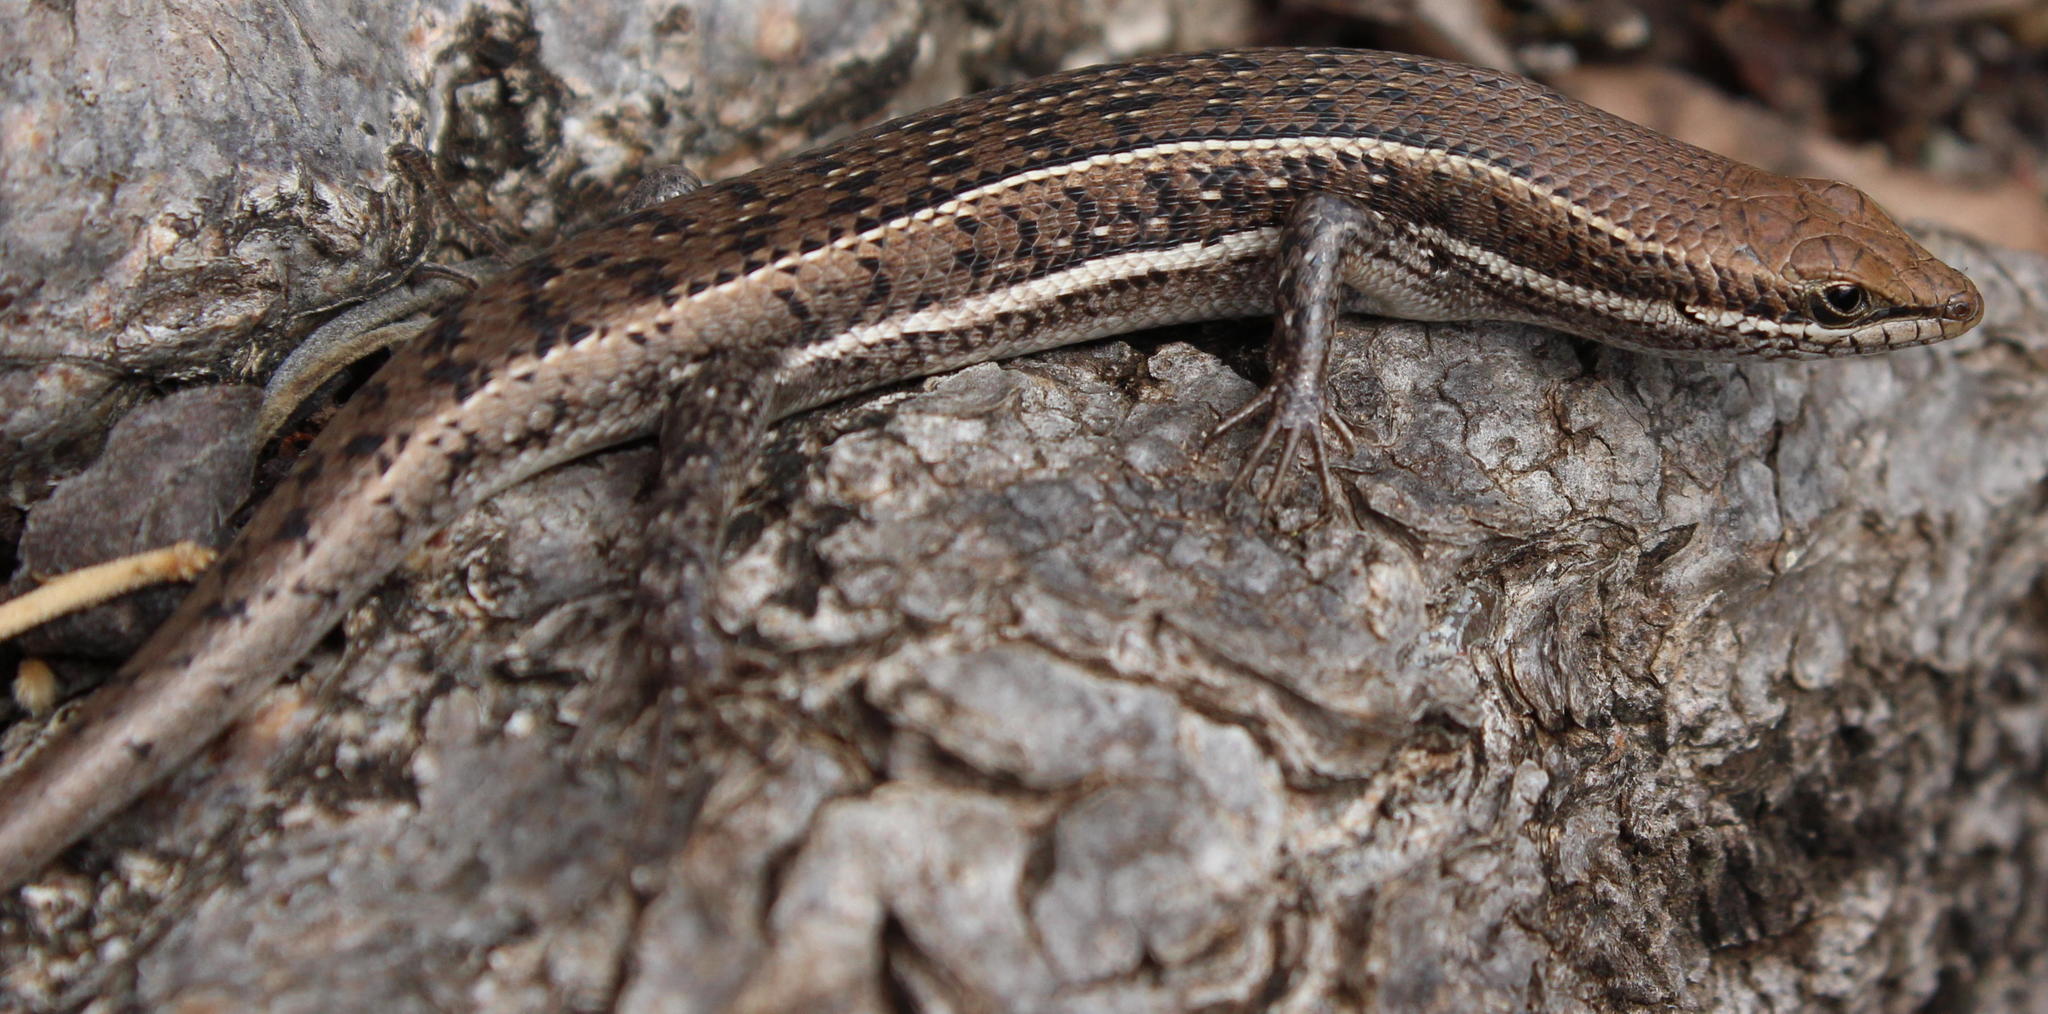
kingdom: Animalia
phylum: Chordata
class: Squamata
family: Scincidae
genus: Trachylepis
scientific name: Trachylepis varia
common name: Eastern variable skink
